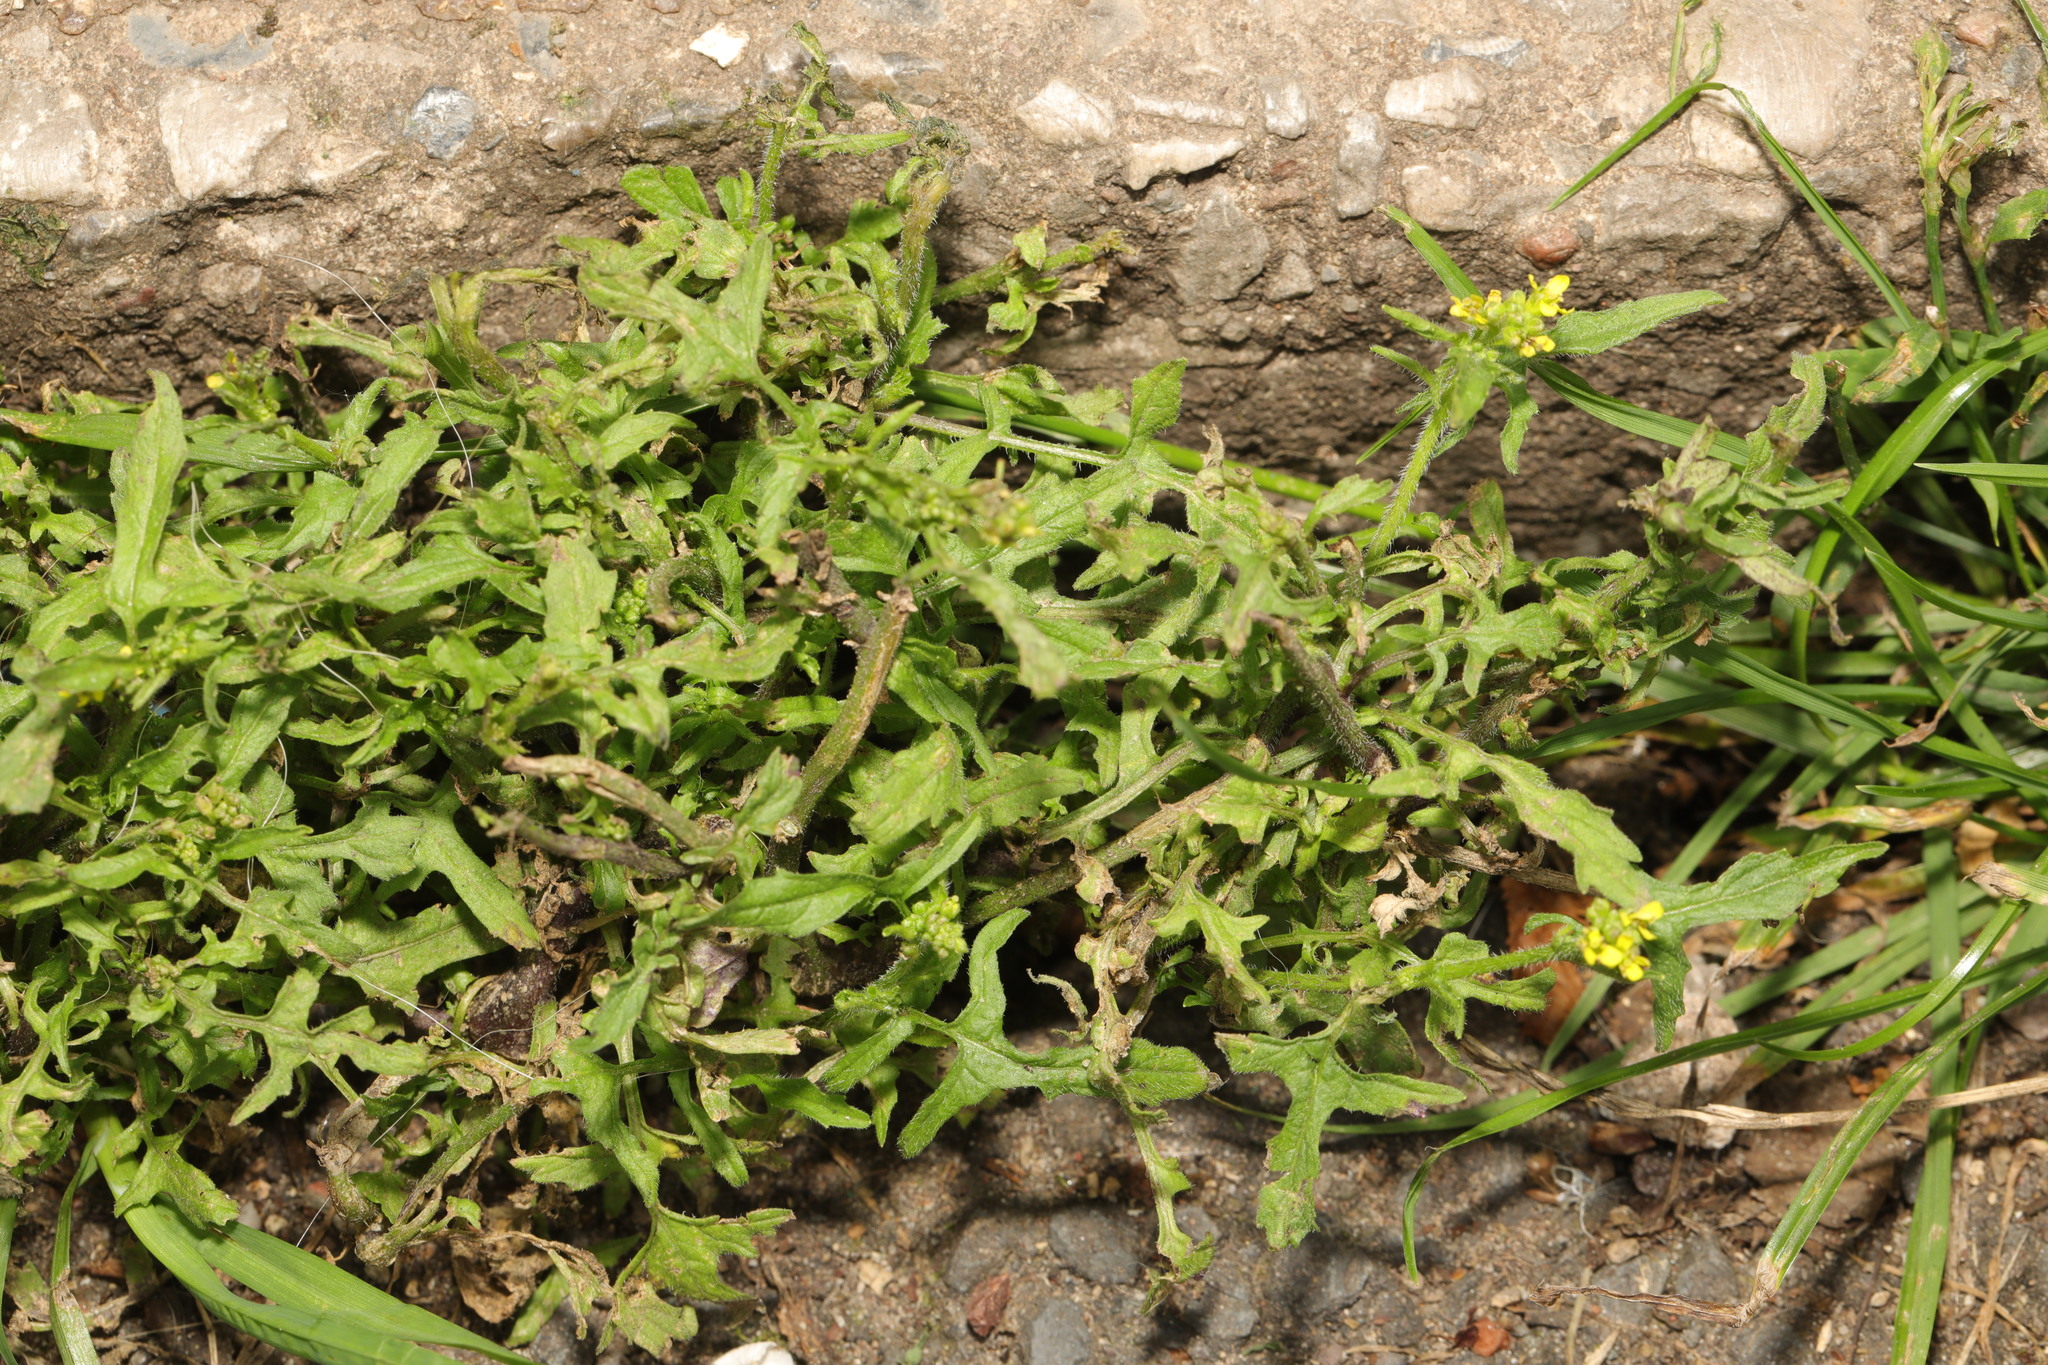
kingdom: Plantae
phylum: Tracheophyta
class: Magnoliopsida
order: Brassicales
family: Brassicaceae
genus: Sisymbrium
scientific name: Sisymbrium officinale
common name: Hedge mustard
